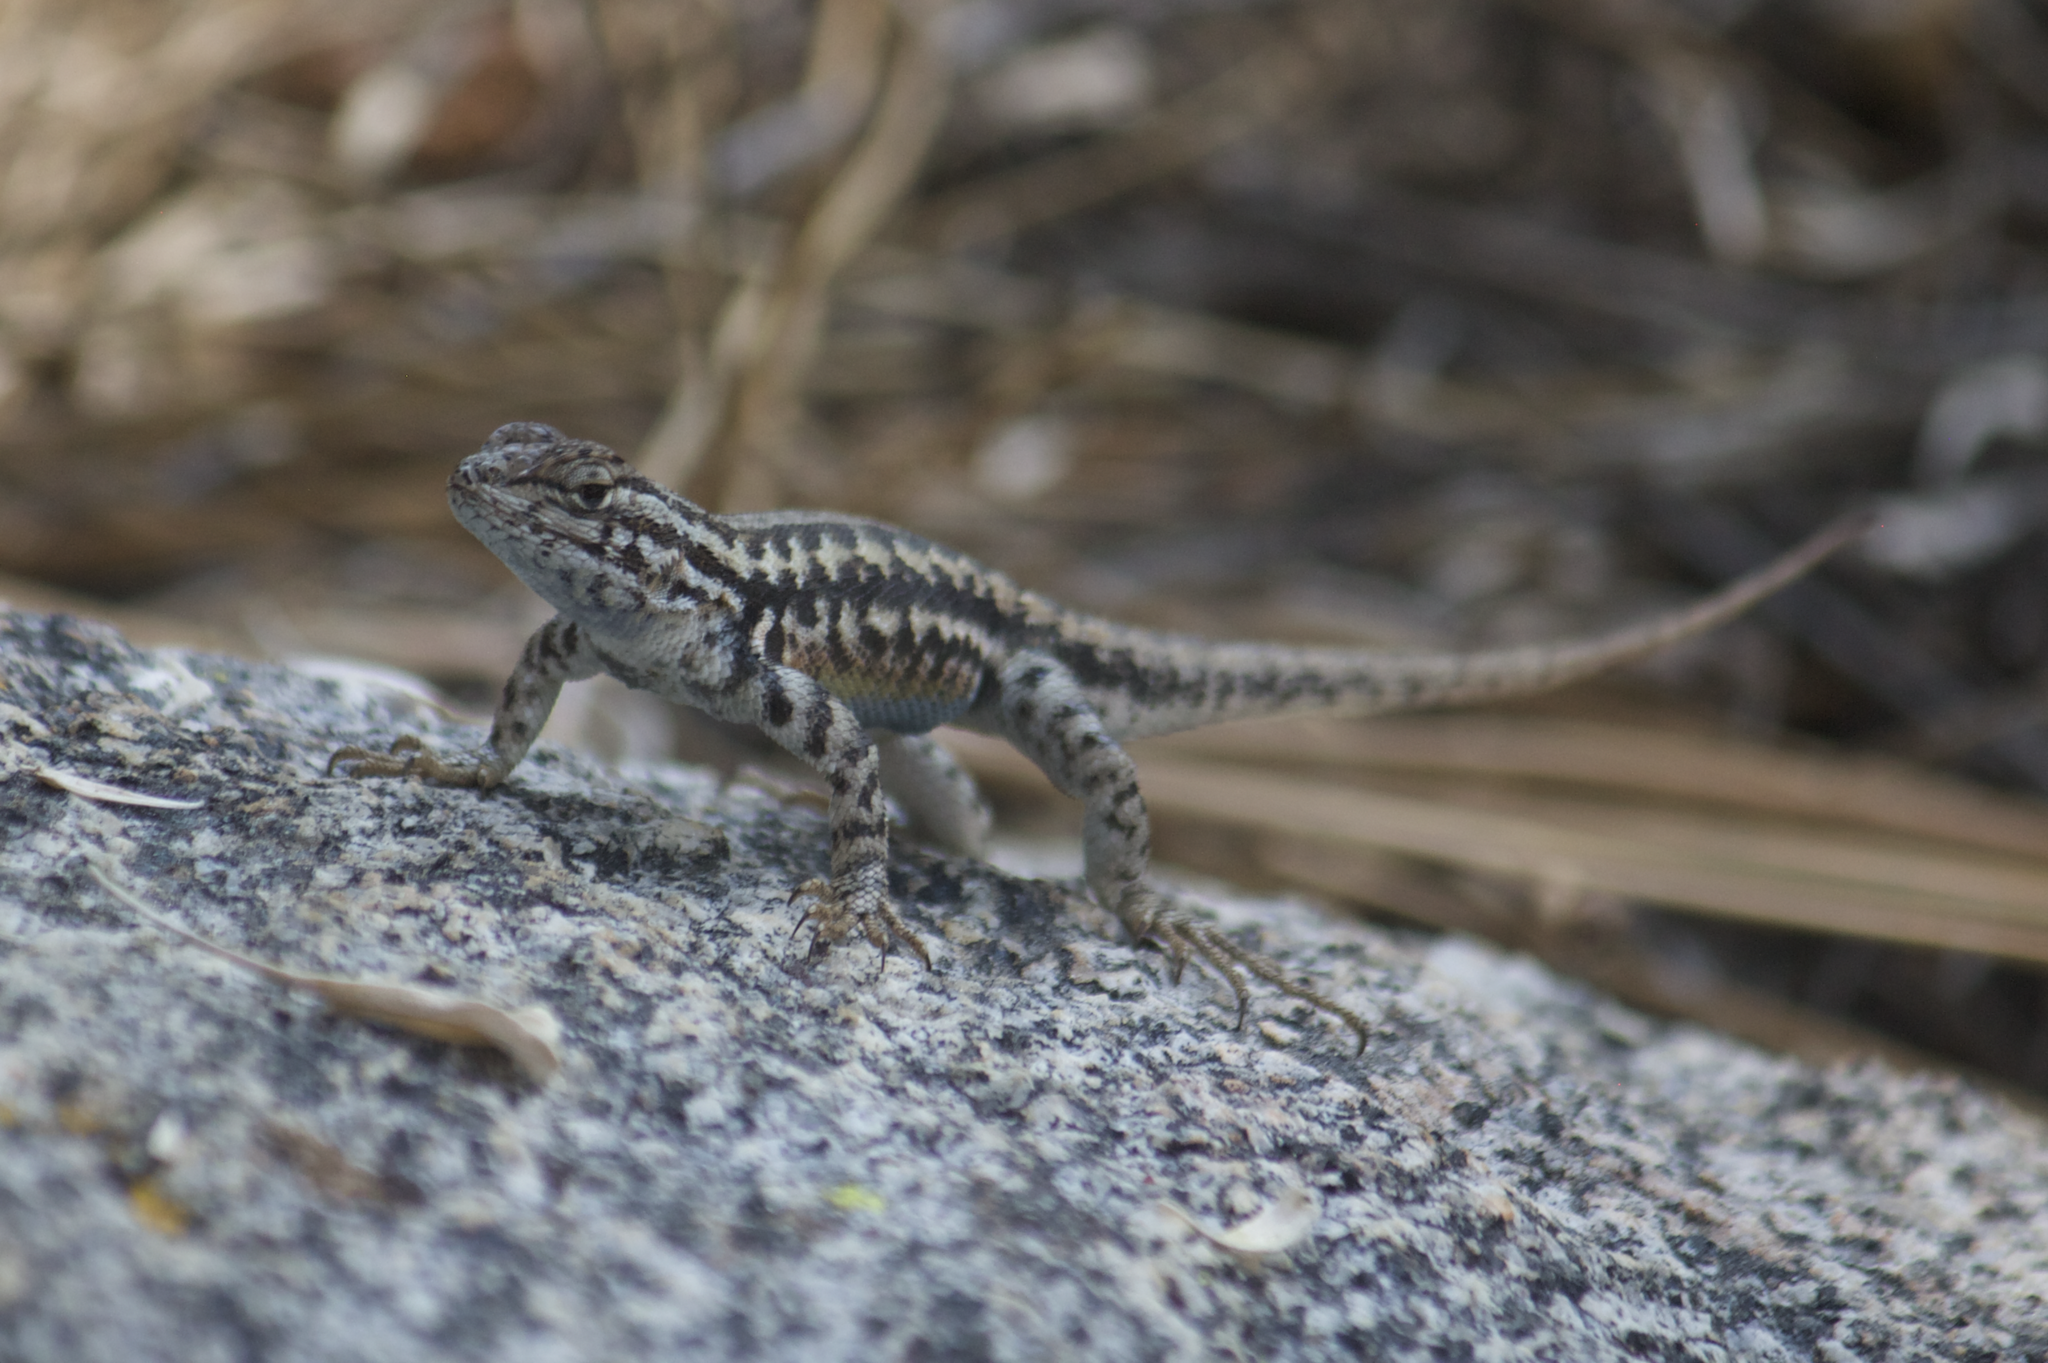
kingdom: Animalia
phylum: Chordata
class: Squamata
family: Phrynosomatidae
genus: Sceloporus
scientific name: Sceloporus graciosus
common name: Sagebrush lizard
